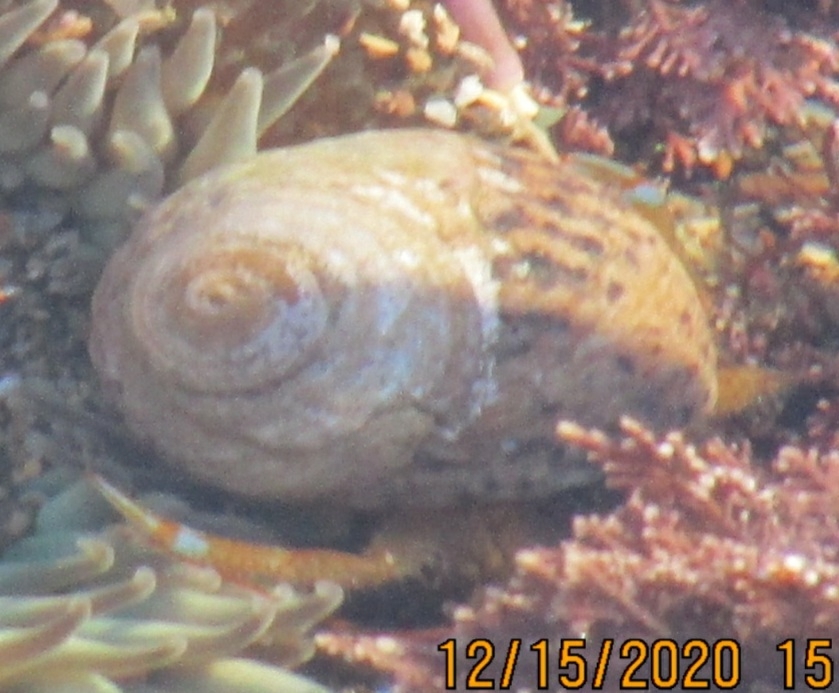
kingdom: Animalia
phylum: Arthropoda
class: Malacostraca
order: Decapoda
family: Paguridae
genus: Pagurus
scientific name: Pagurus samuelis
